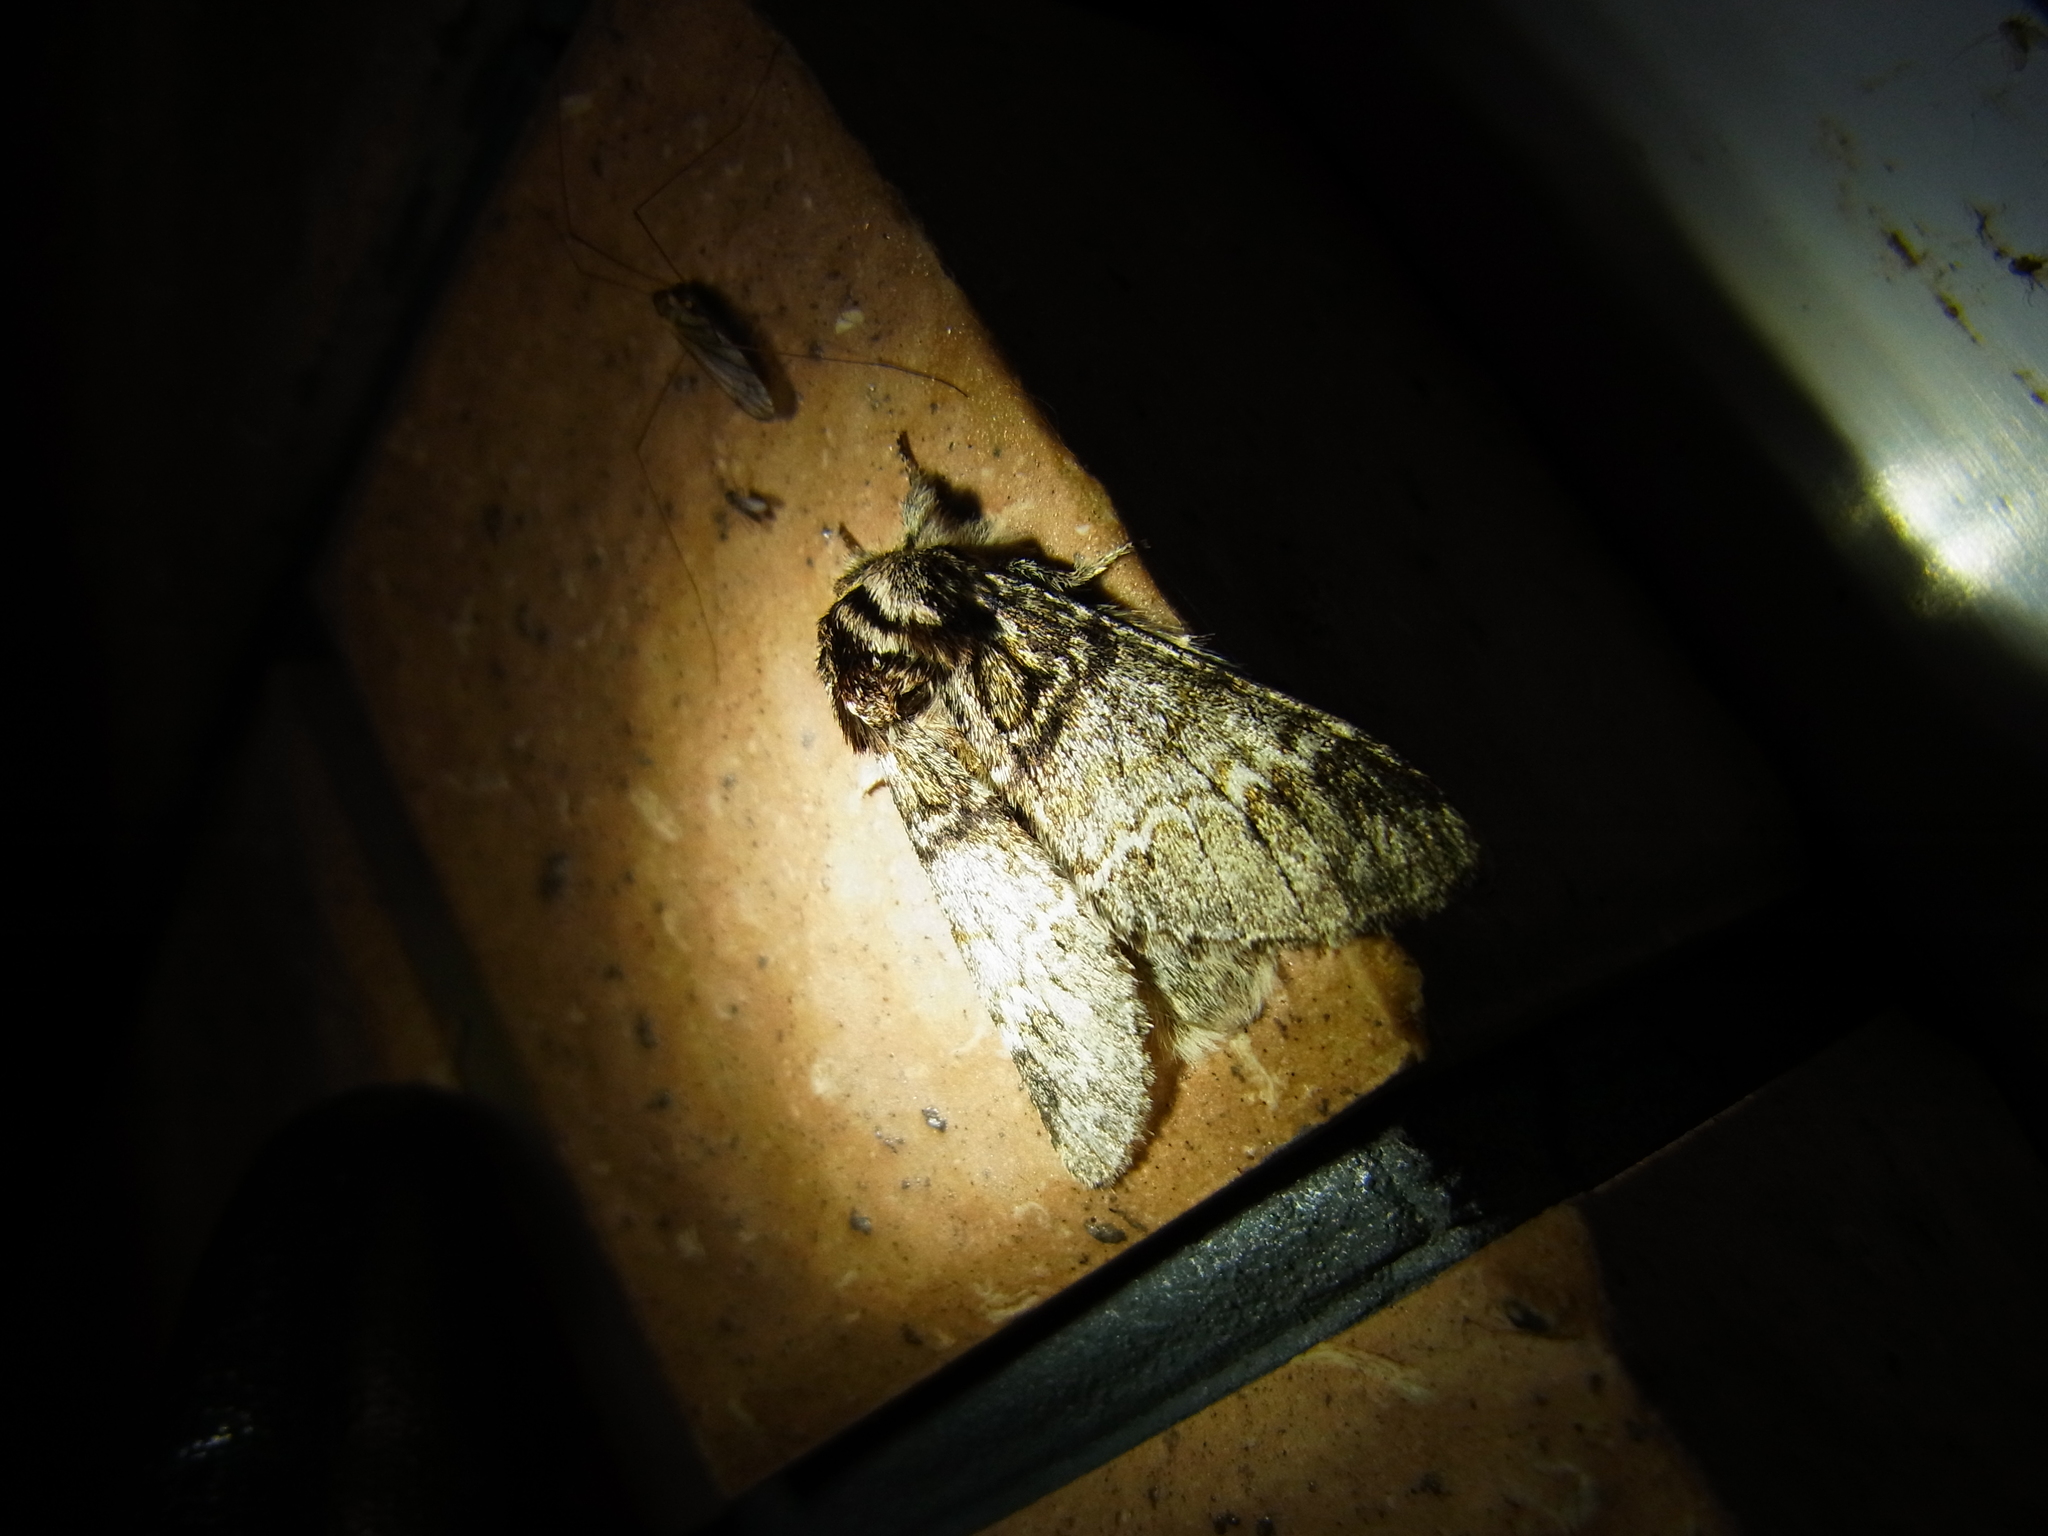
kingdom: Animalia
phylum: Arthropoda
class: Insecta
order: Lepidoptera
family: Notodontidae
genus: Drymonia
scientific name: Drymonia basalis
